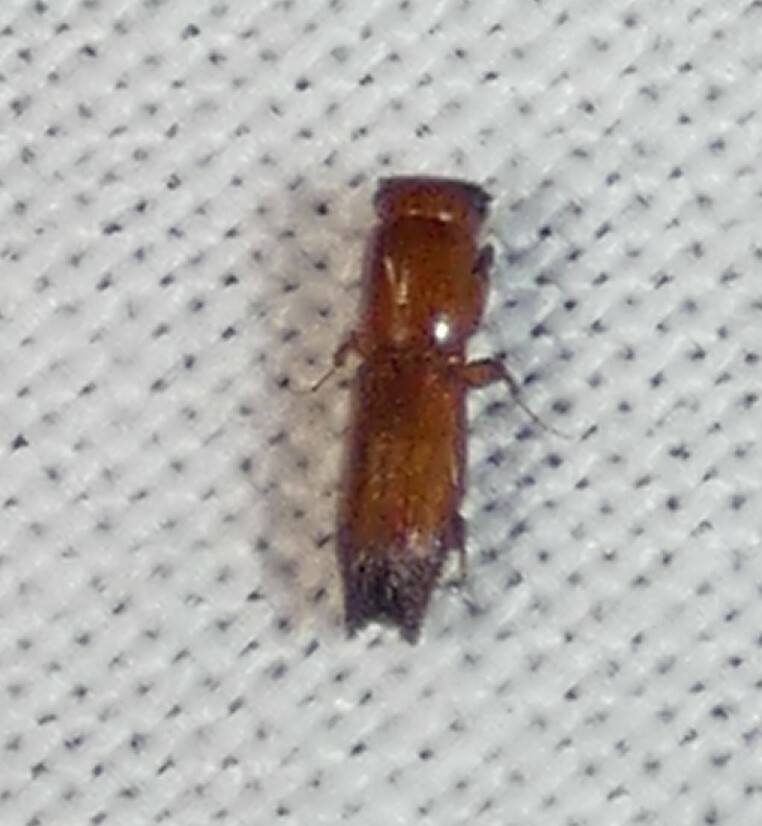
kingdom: Animalia
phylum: Arthropoda
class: Insecta
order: Coleoptera
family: Curculionidae
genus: Euplatypus
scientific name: Euplatypus compositus
